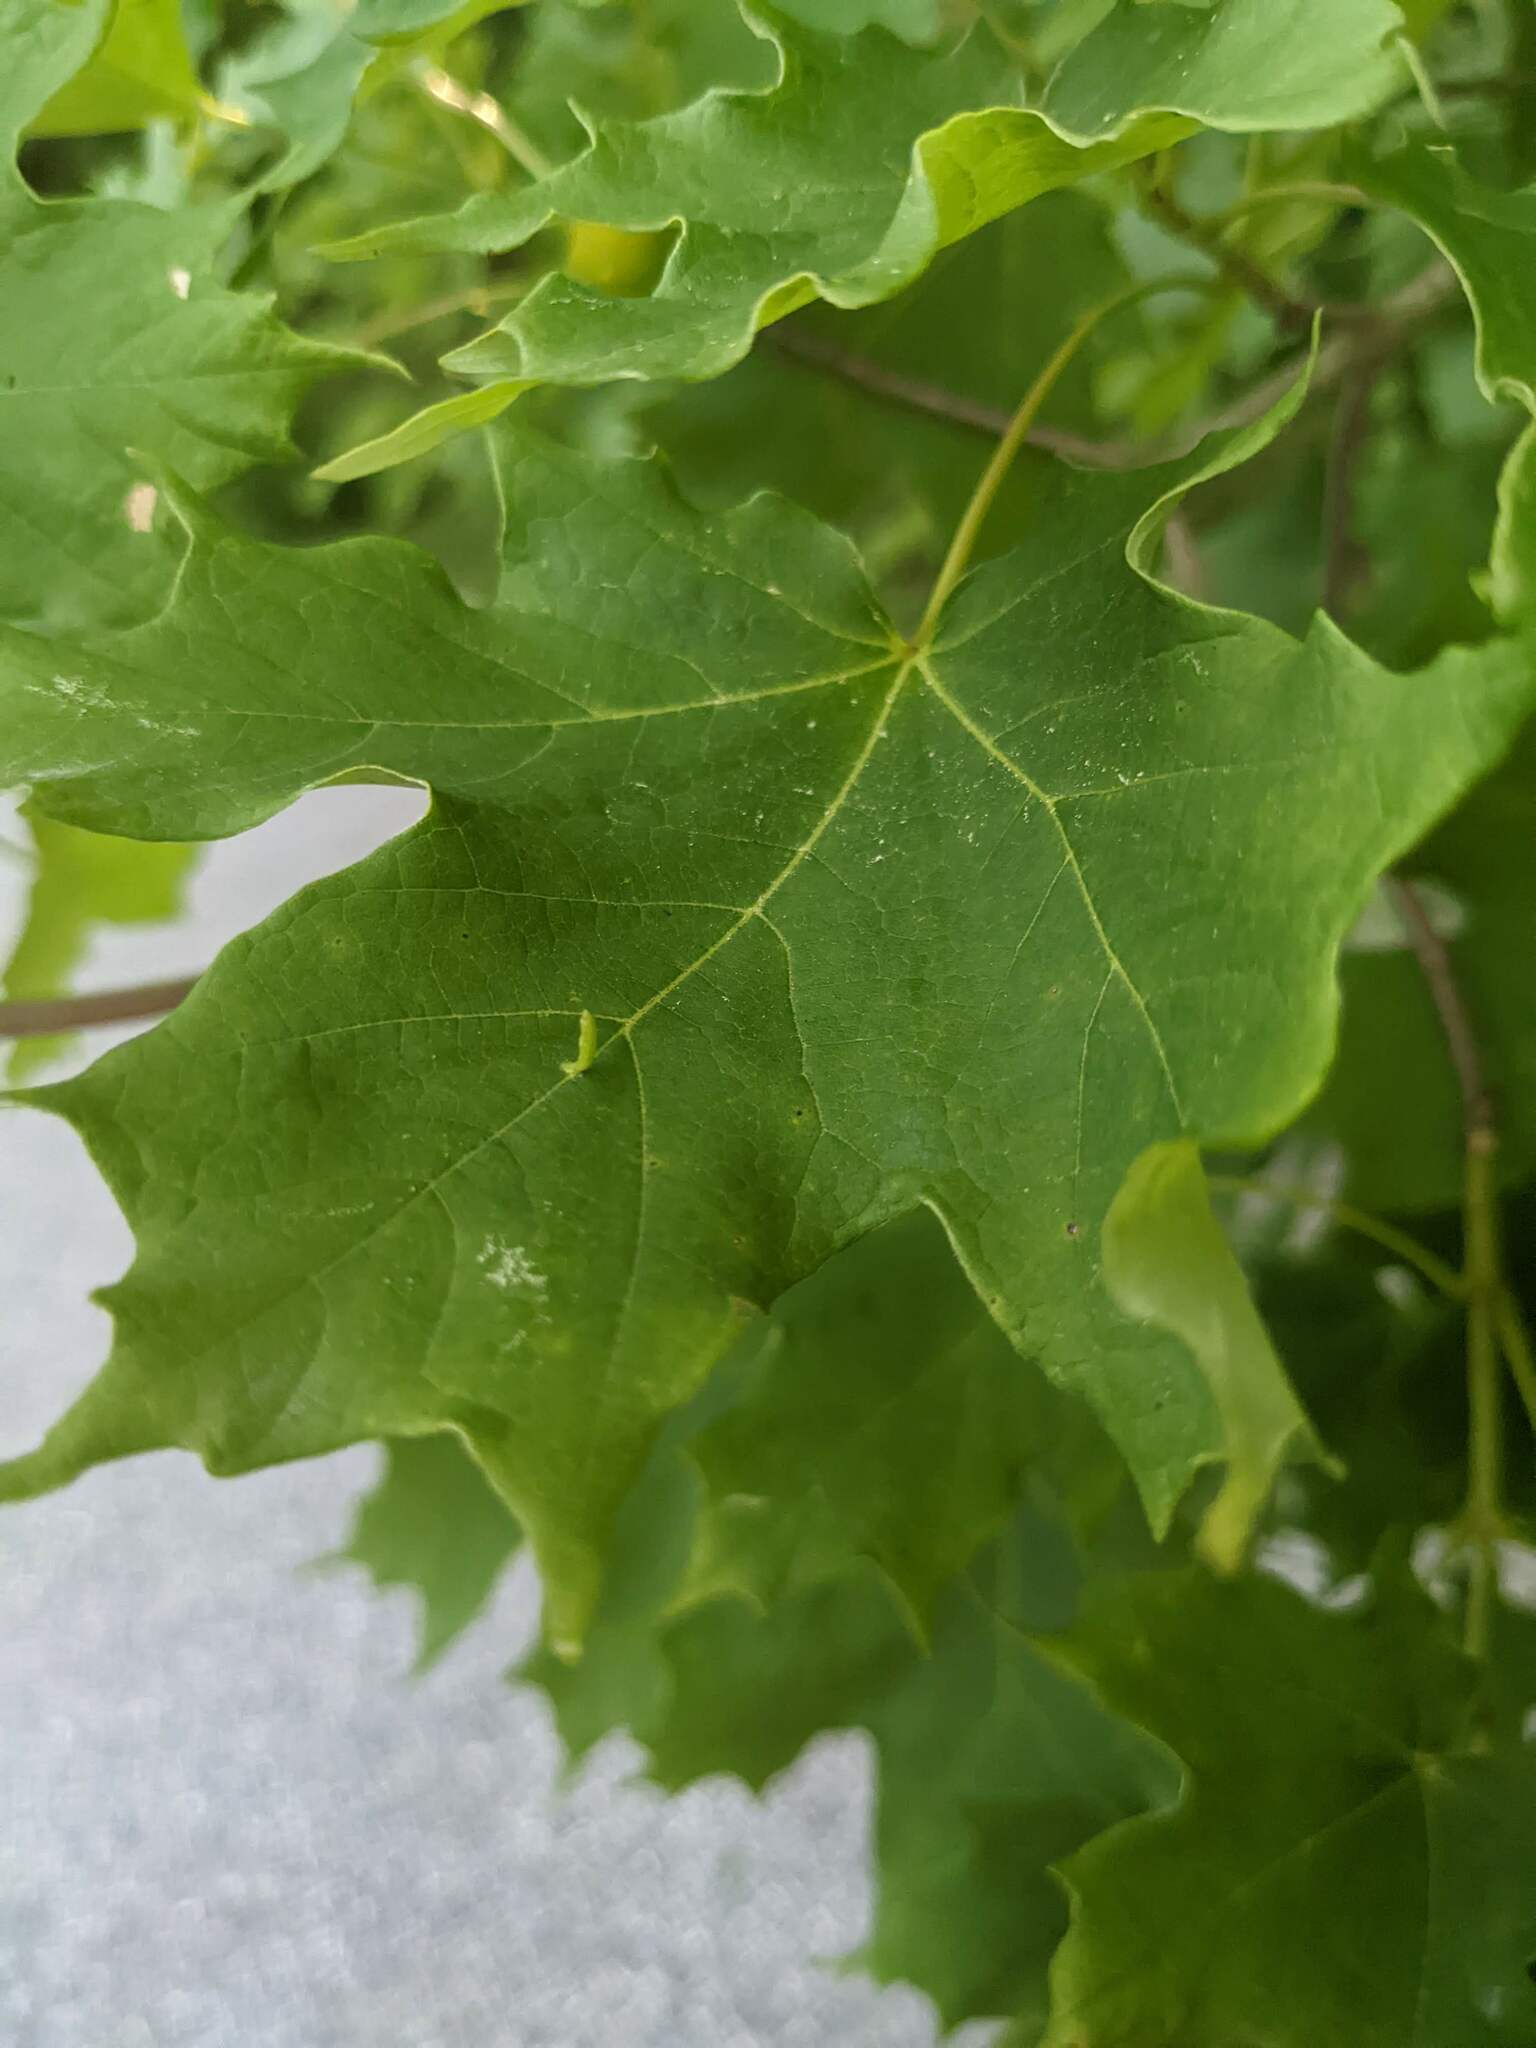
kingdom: Animalia
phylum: Arthropoda
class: Arachnida
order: Trombidiformes
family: Eriophyidae
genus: Vasates
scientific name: Vasates aceriscrumena
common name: Maple spindle gall mite
